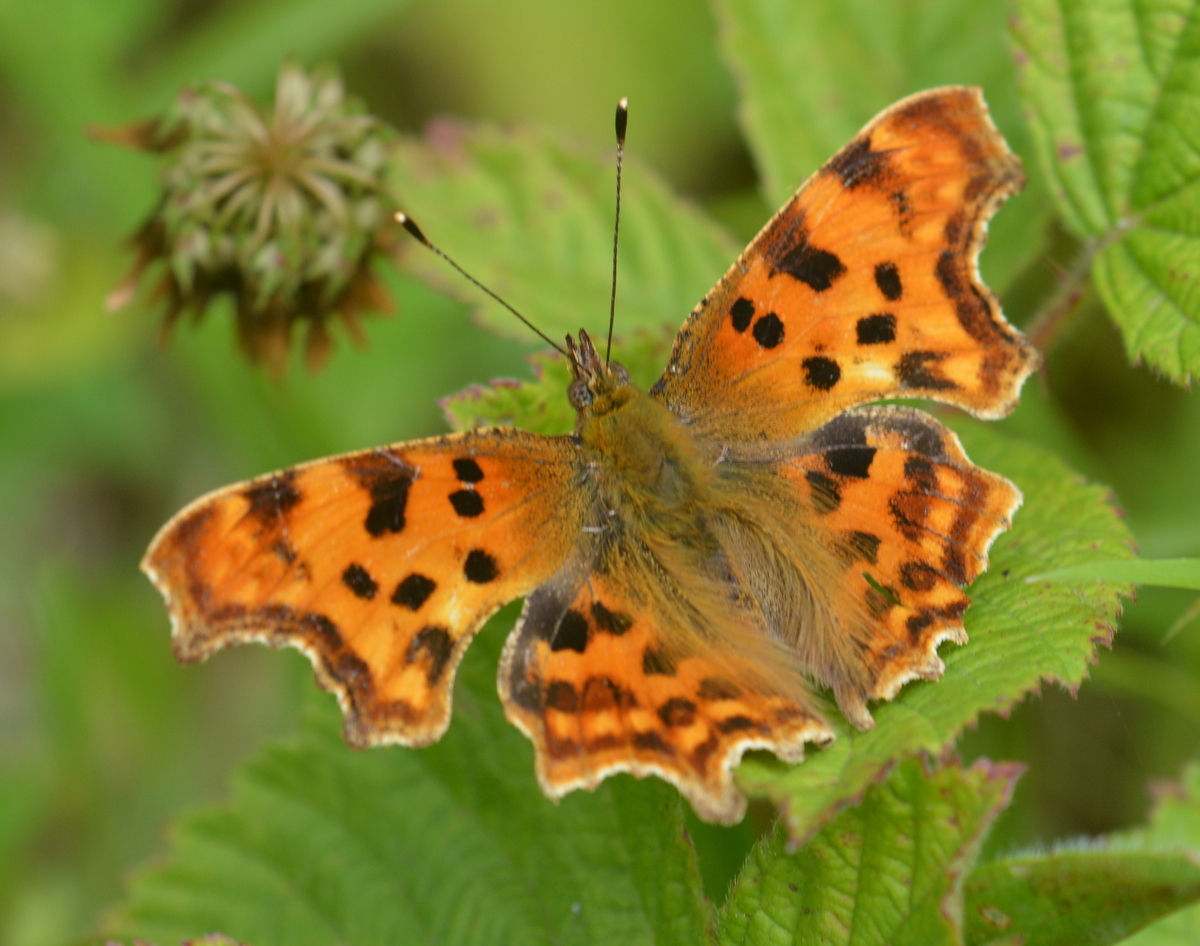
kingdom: Animalia
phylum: Arthropoda
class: Insecta
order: Lepidoptera
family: Nymphalidae
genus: Polygonia
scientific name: Polygonia c-album
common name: Comma
